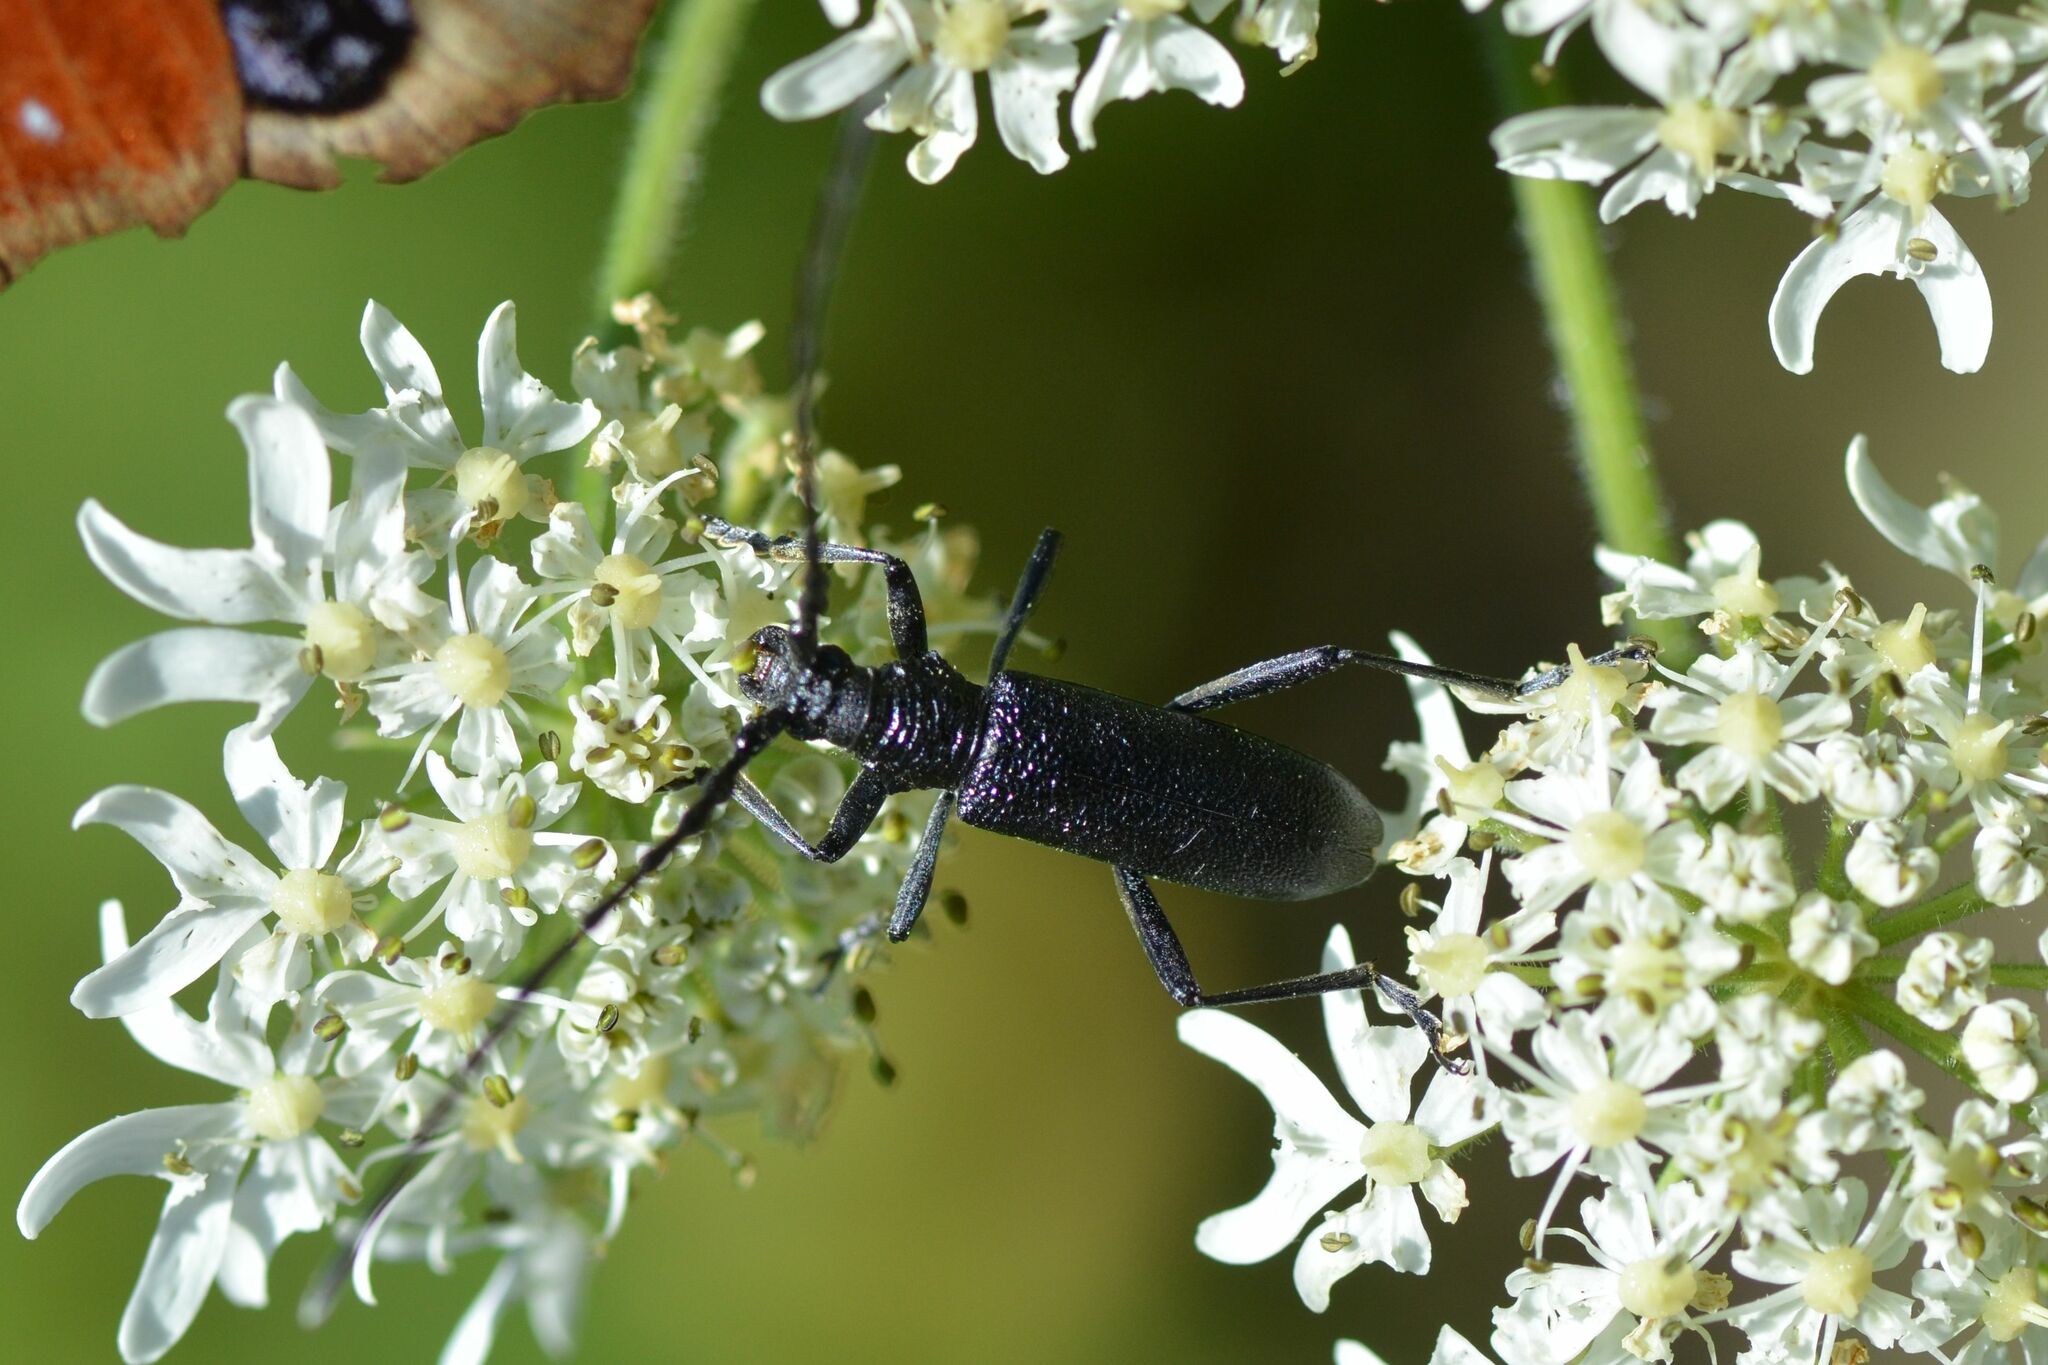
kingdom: Animalia
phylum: Arthropoda
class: Insecta
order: Coleoptera
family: Cerambycidae
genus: Cerambyx
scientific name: Cerambyx scopolii
